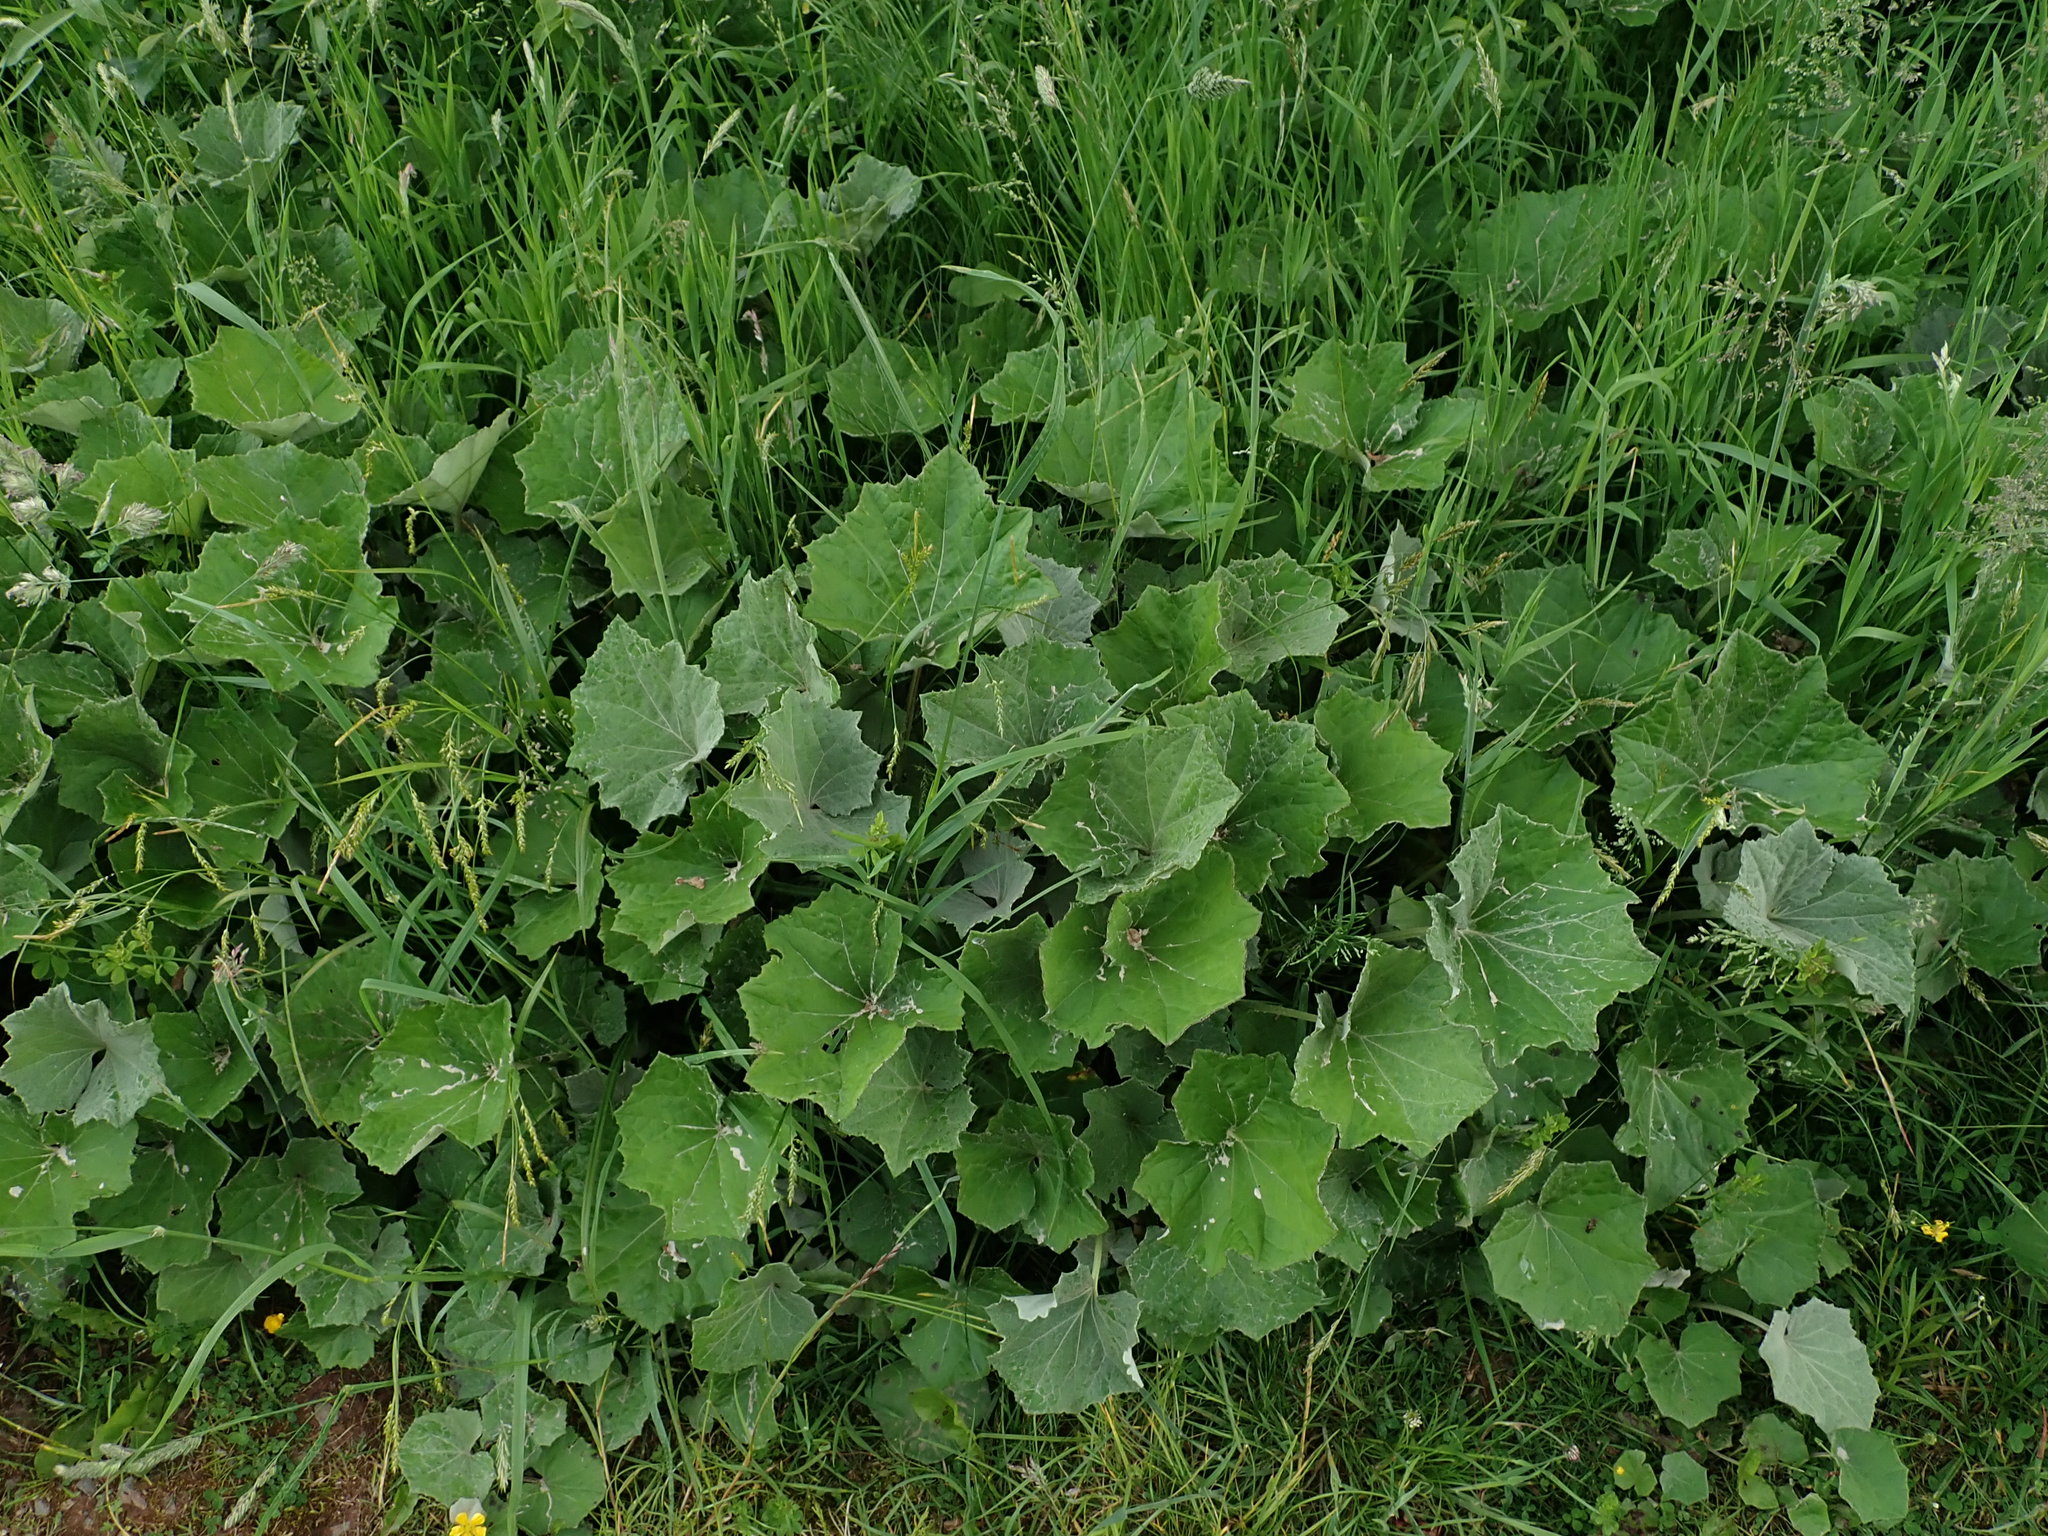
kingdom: Plantae
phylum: Tracheophyta
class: Magnoliopsida
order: Asterales
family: Asteraceae
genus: Tussilago
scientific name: Tussilago farfara
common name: Coltsfoot
